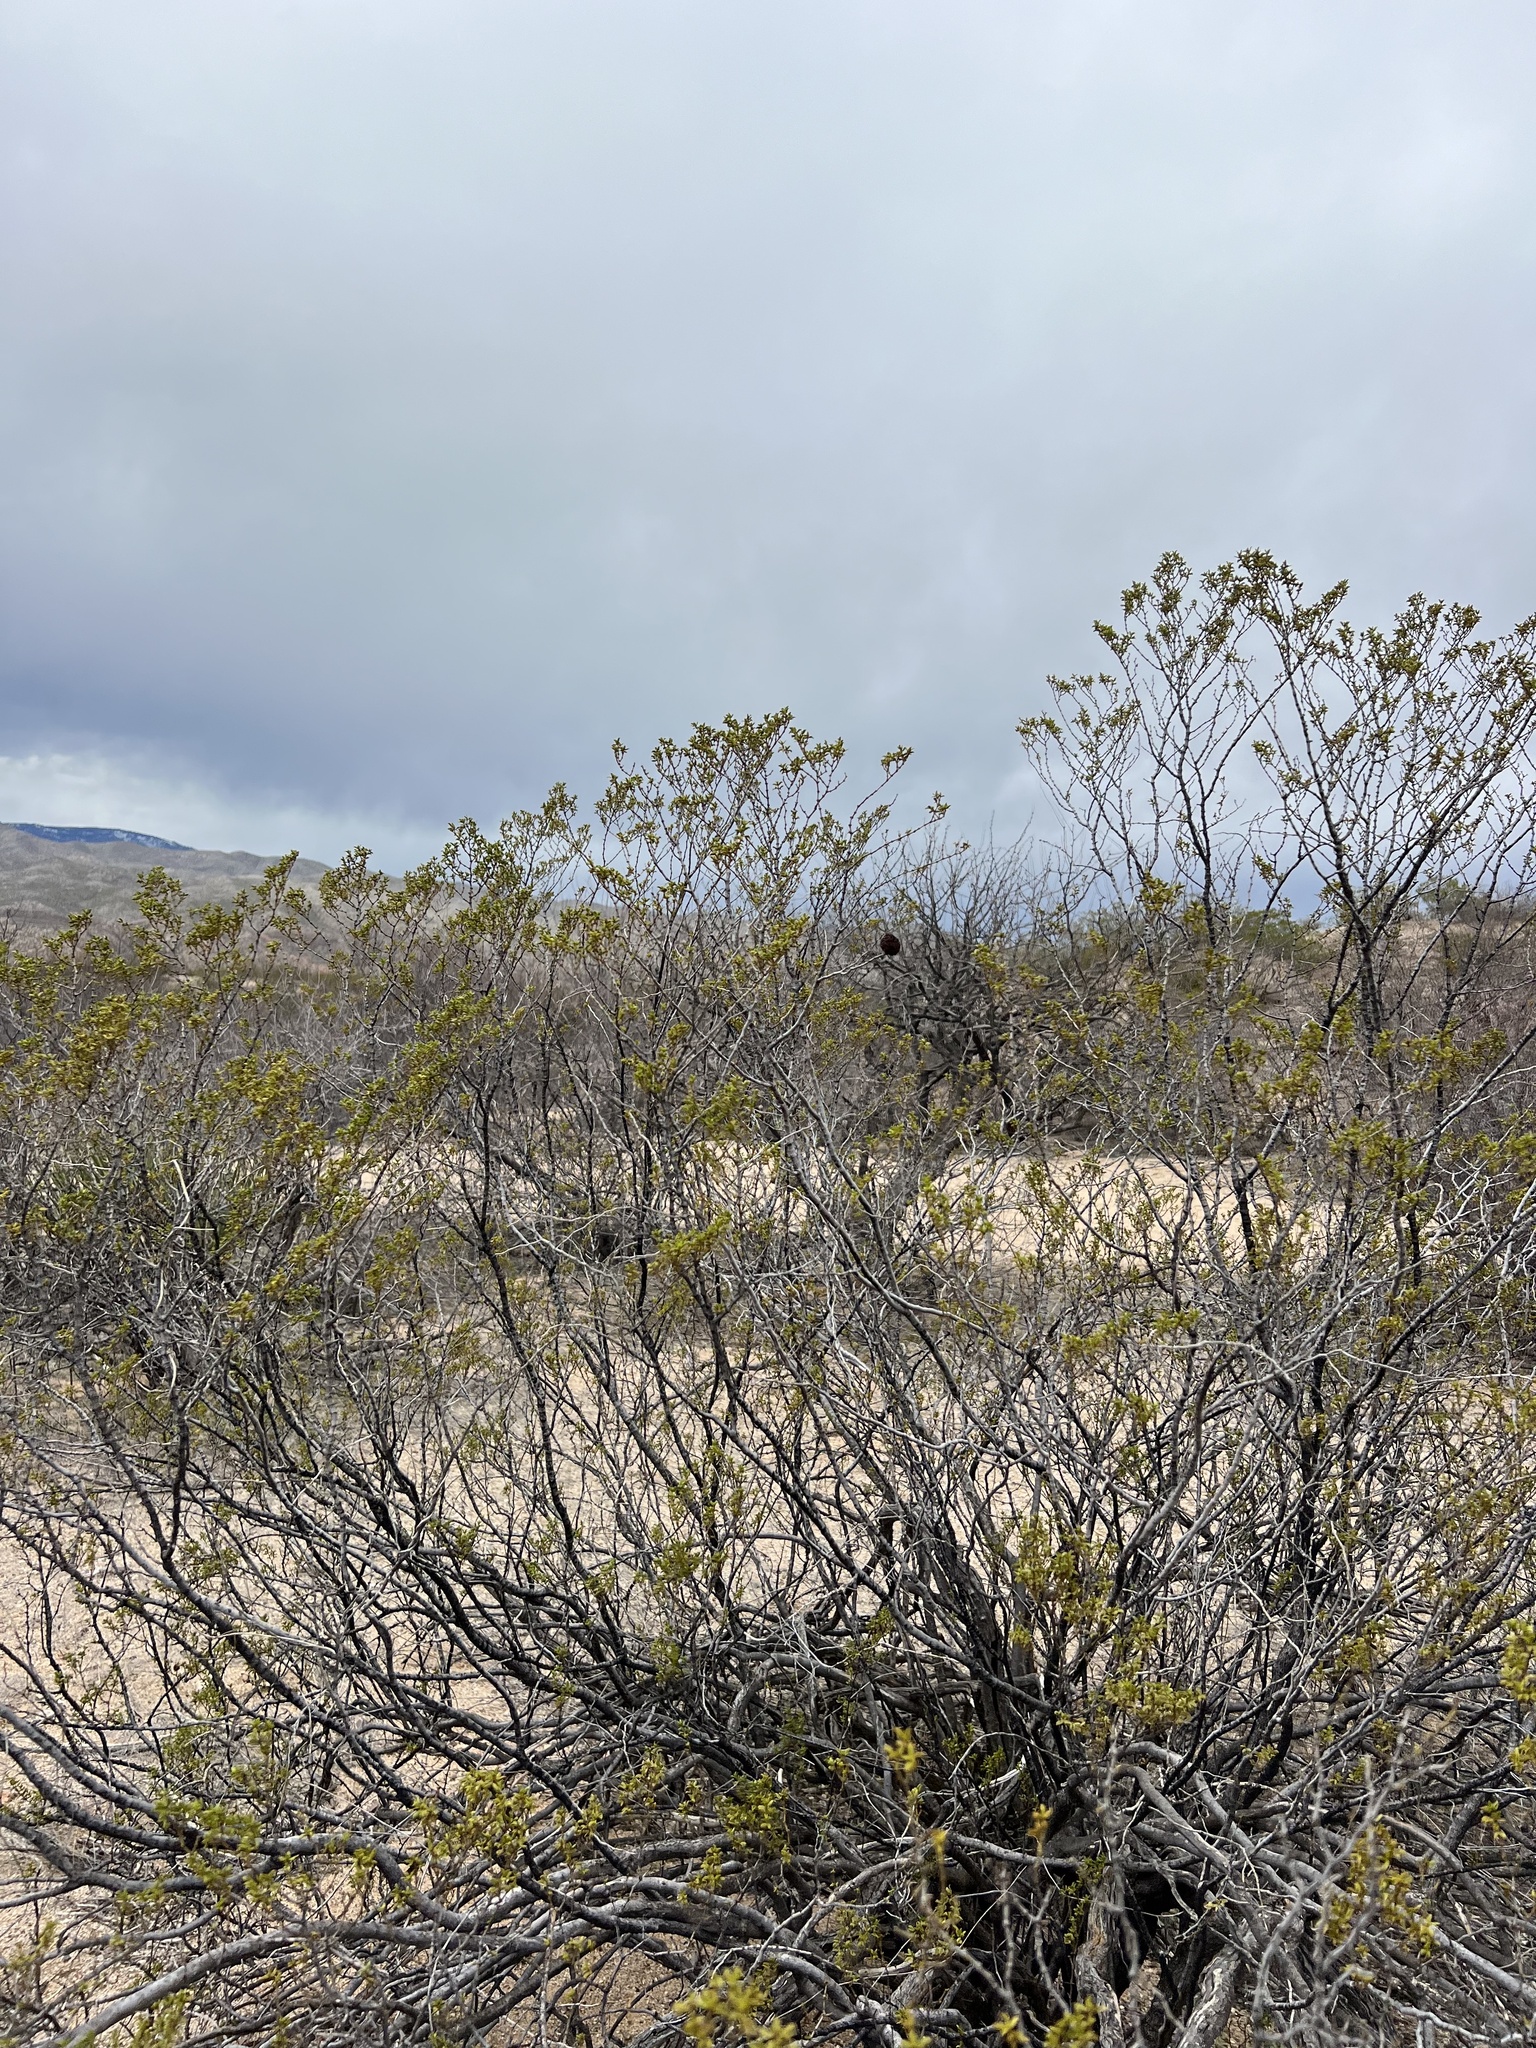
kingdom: Plantae
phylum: Tracheophyta
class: Magnoliopsida
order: Zygophyllales
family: Zygophyllaceae
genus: Larrea
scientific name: Larrea tridentata
